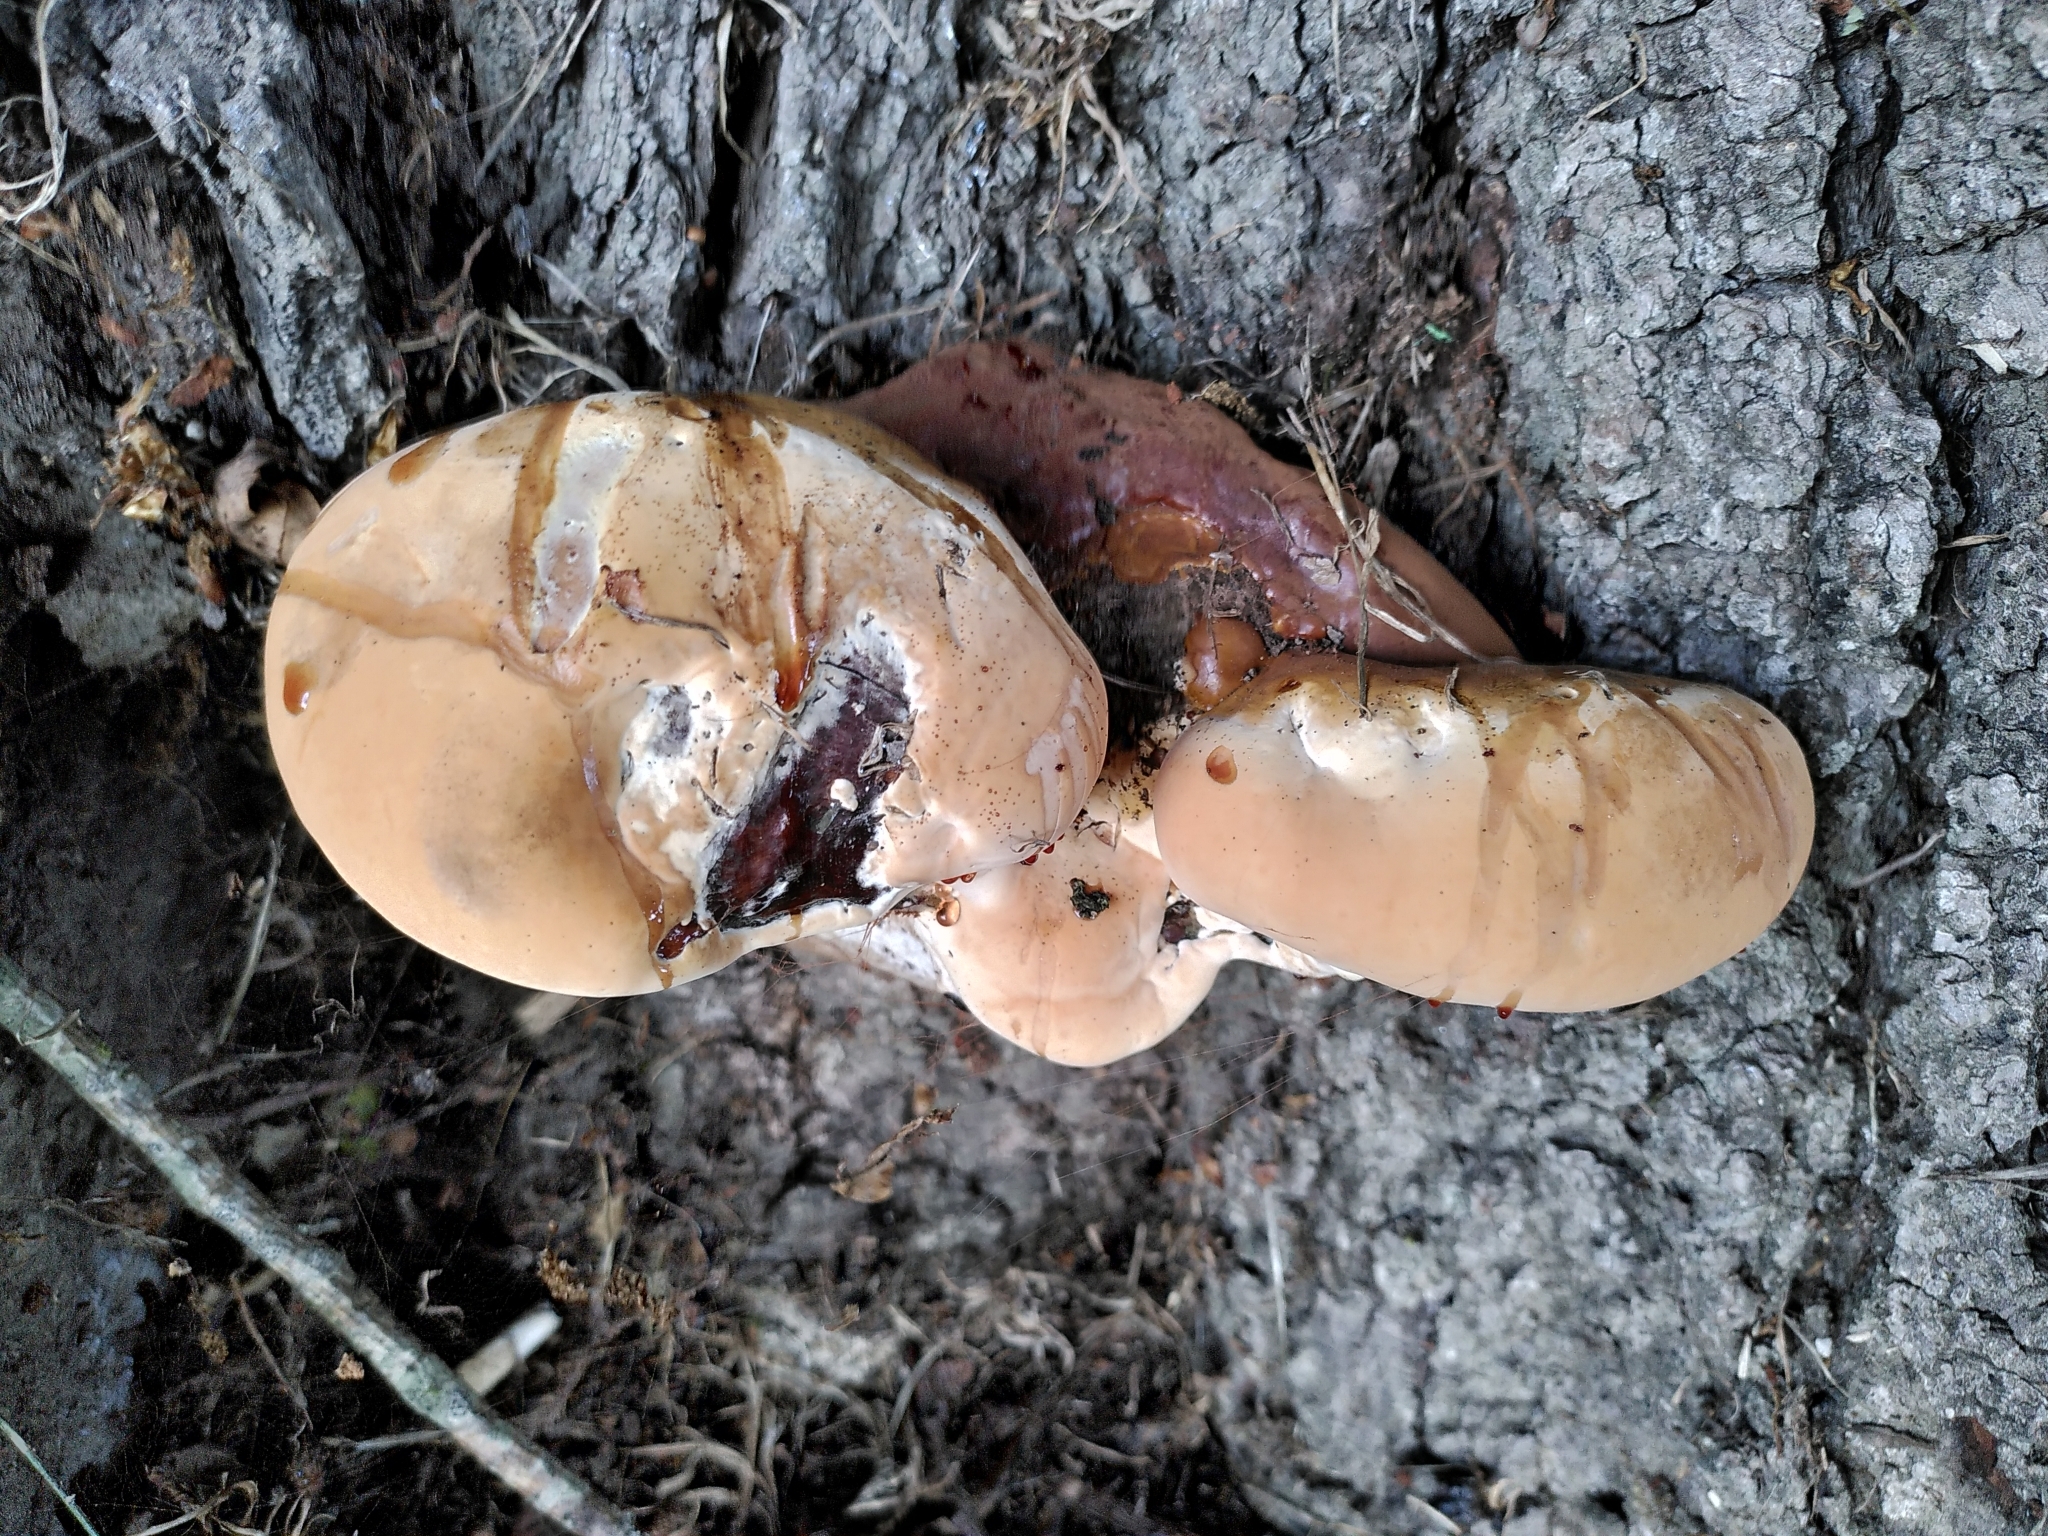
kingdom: Fungi
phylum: Basidiomycota
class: Agaricomycetes
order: Polyporales
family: Polyporaceae
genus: Ganoderma
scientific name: Ganoderma resinaceum
